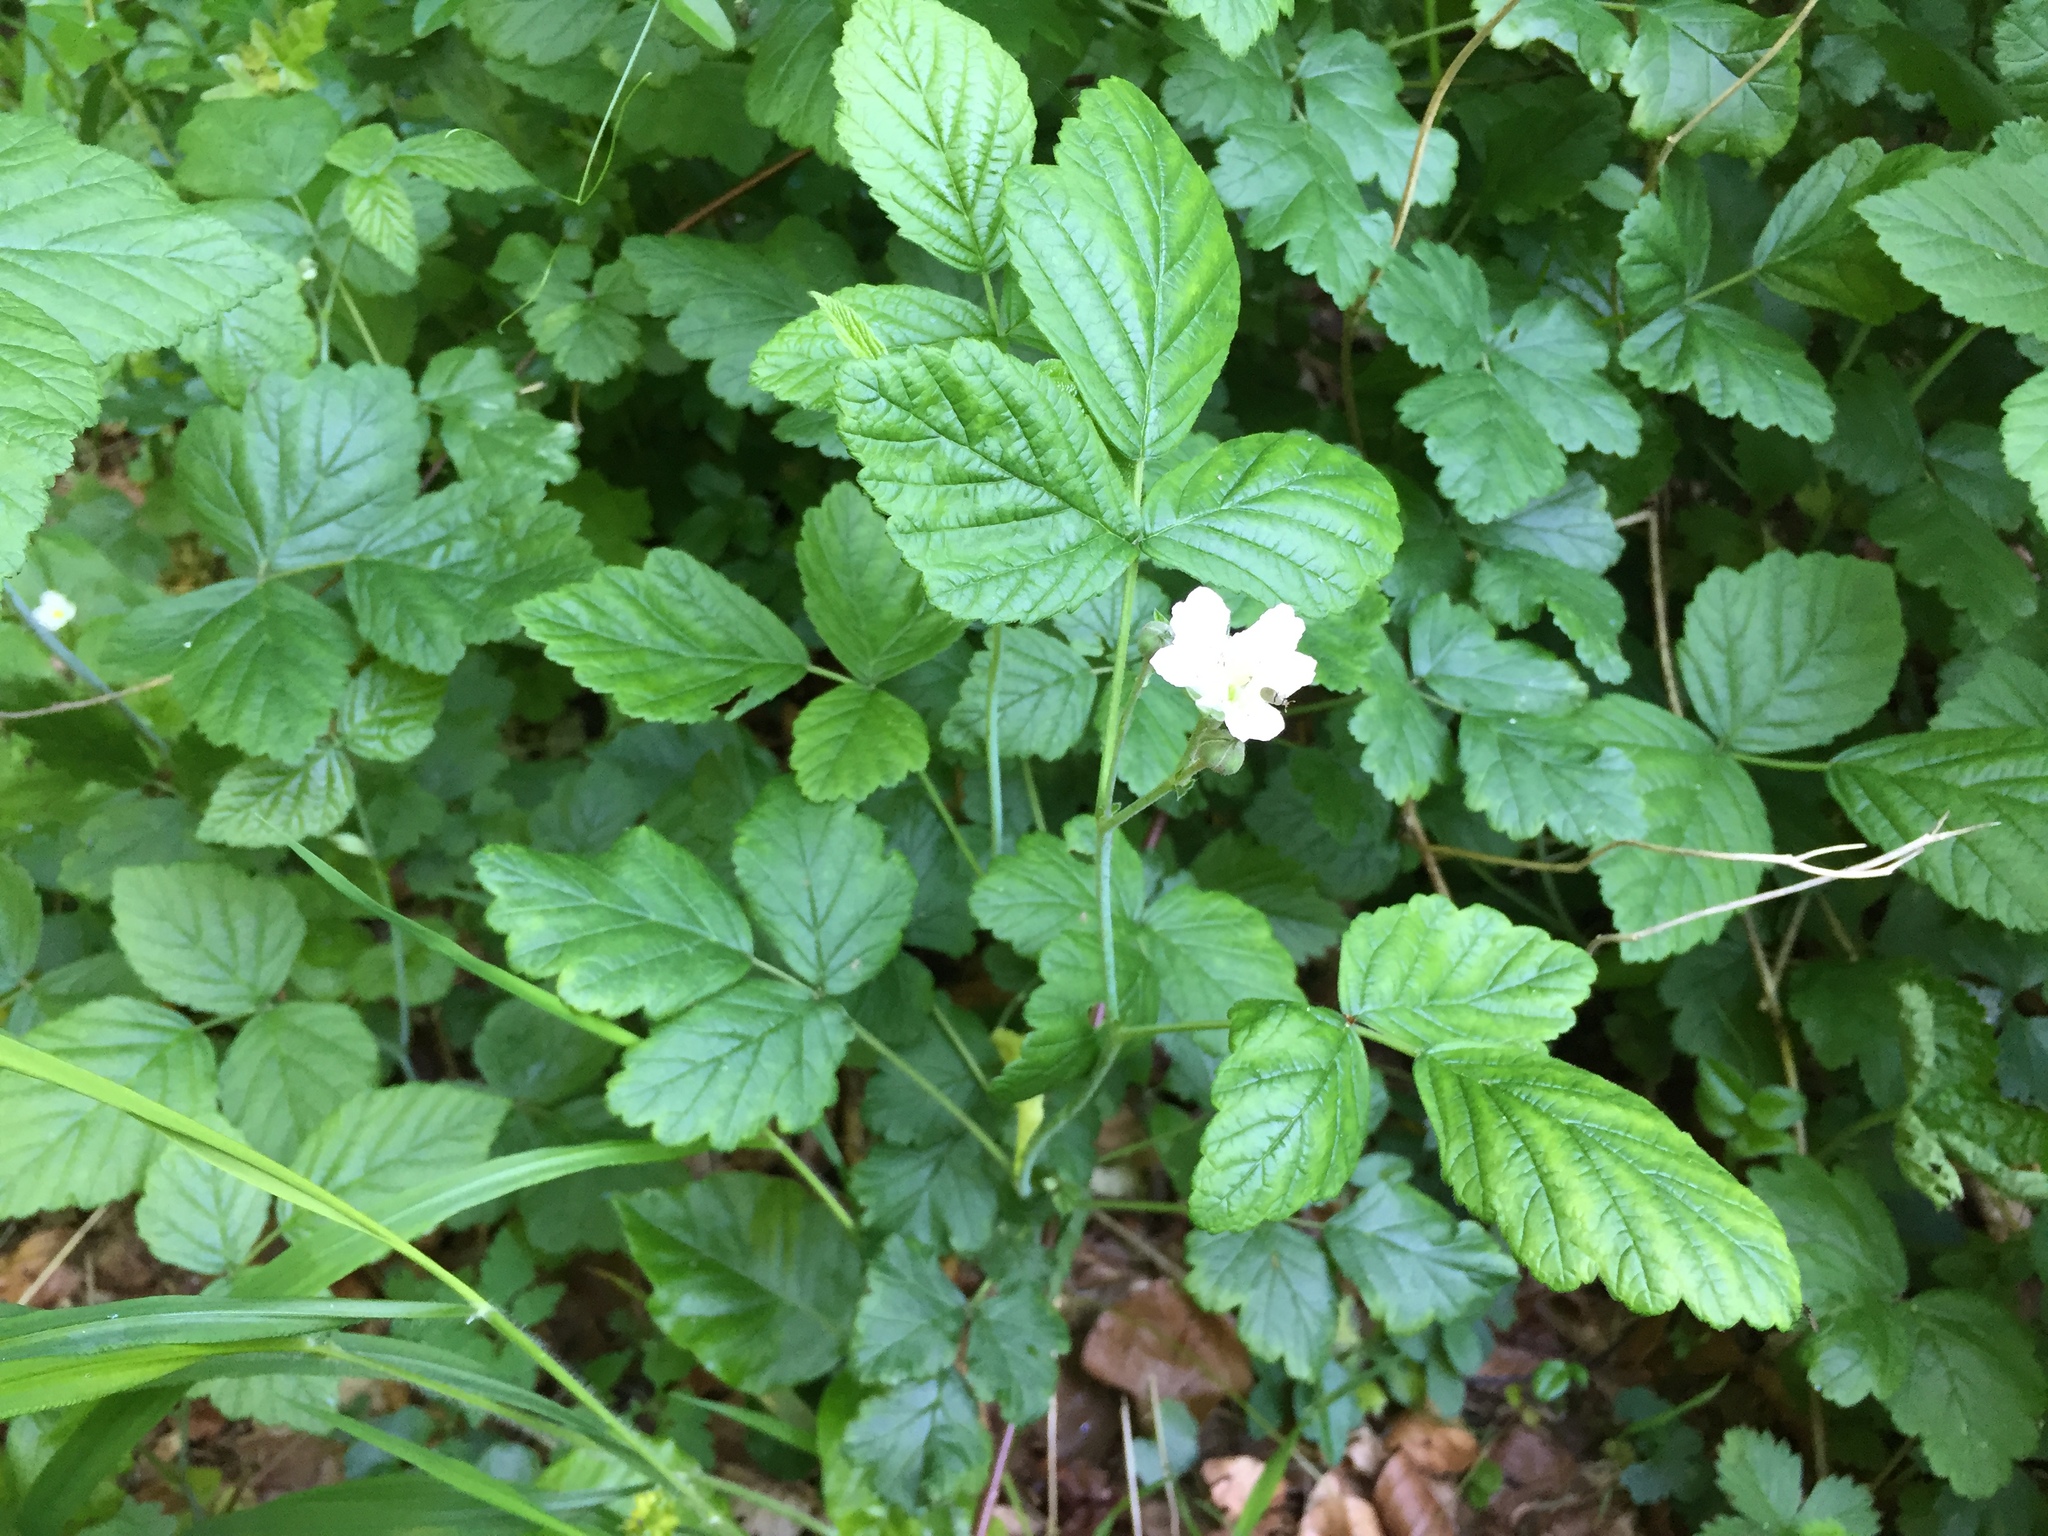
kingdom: Plantae
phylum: Tracheophyta
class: Magnoliopsida
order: Rosales
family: Rosaceae
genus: Rubus
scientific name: Rubus caesius
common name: Dewberry
